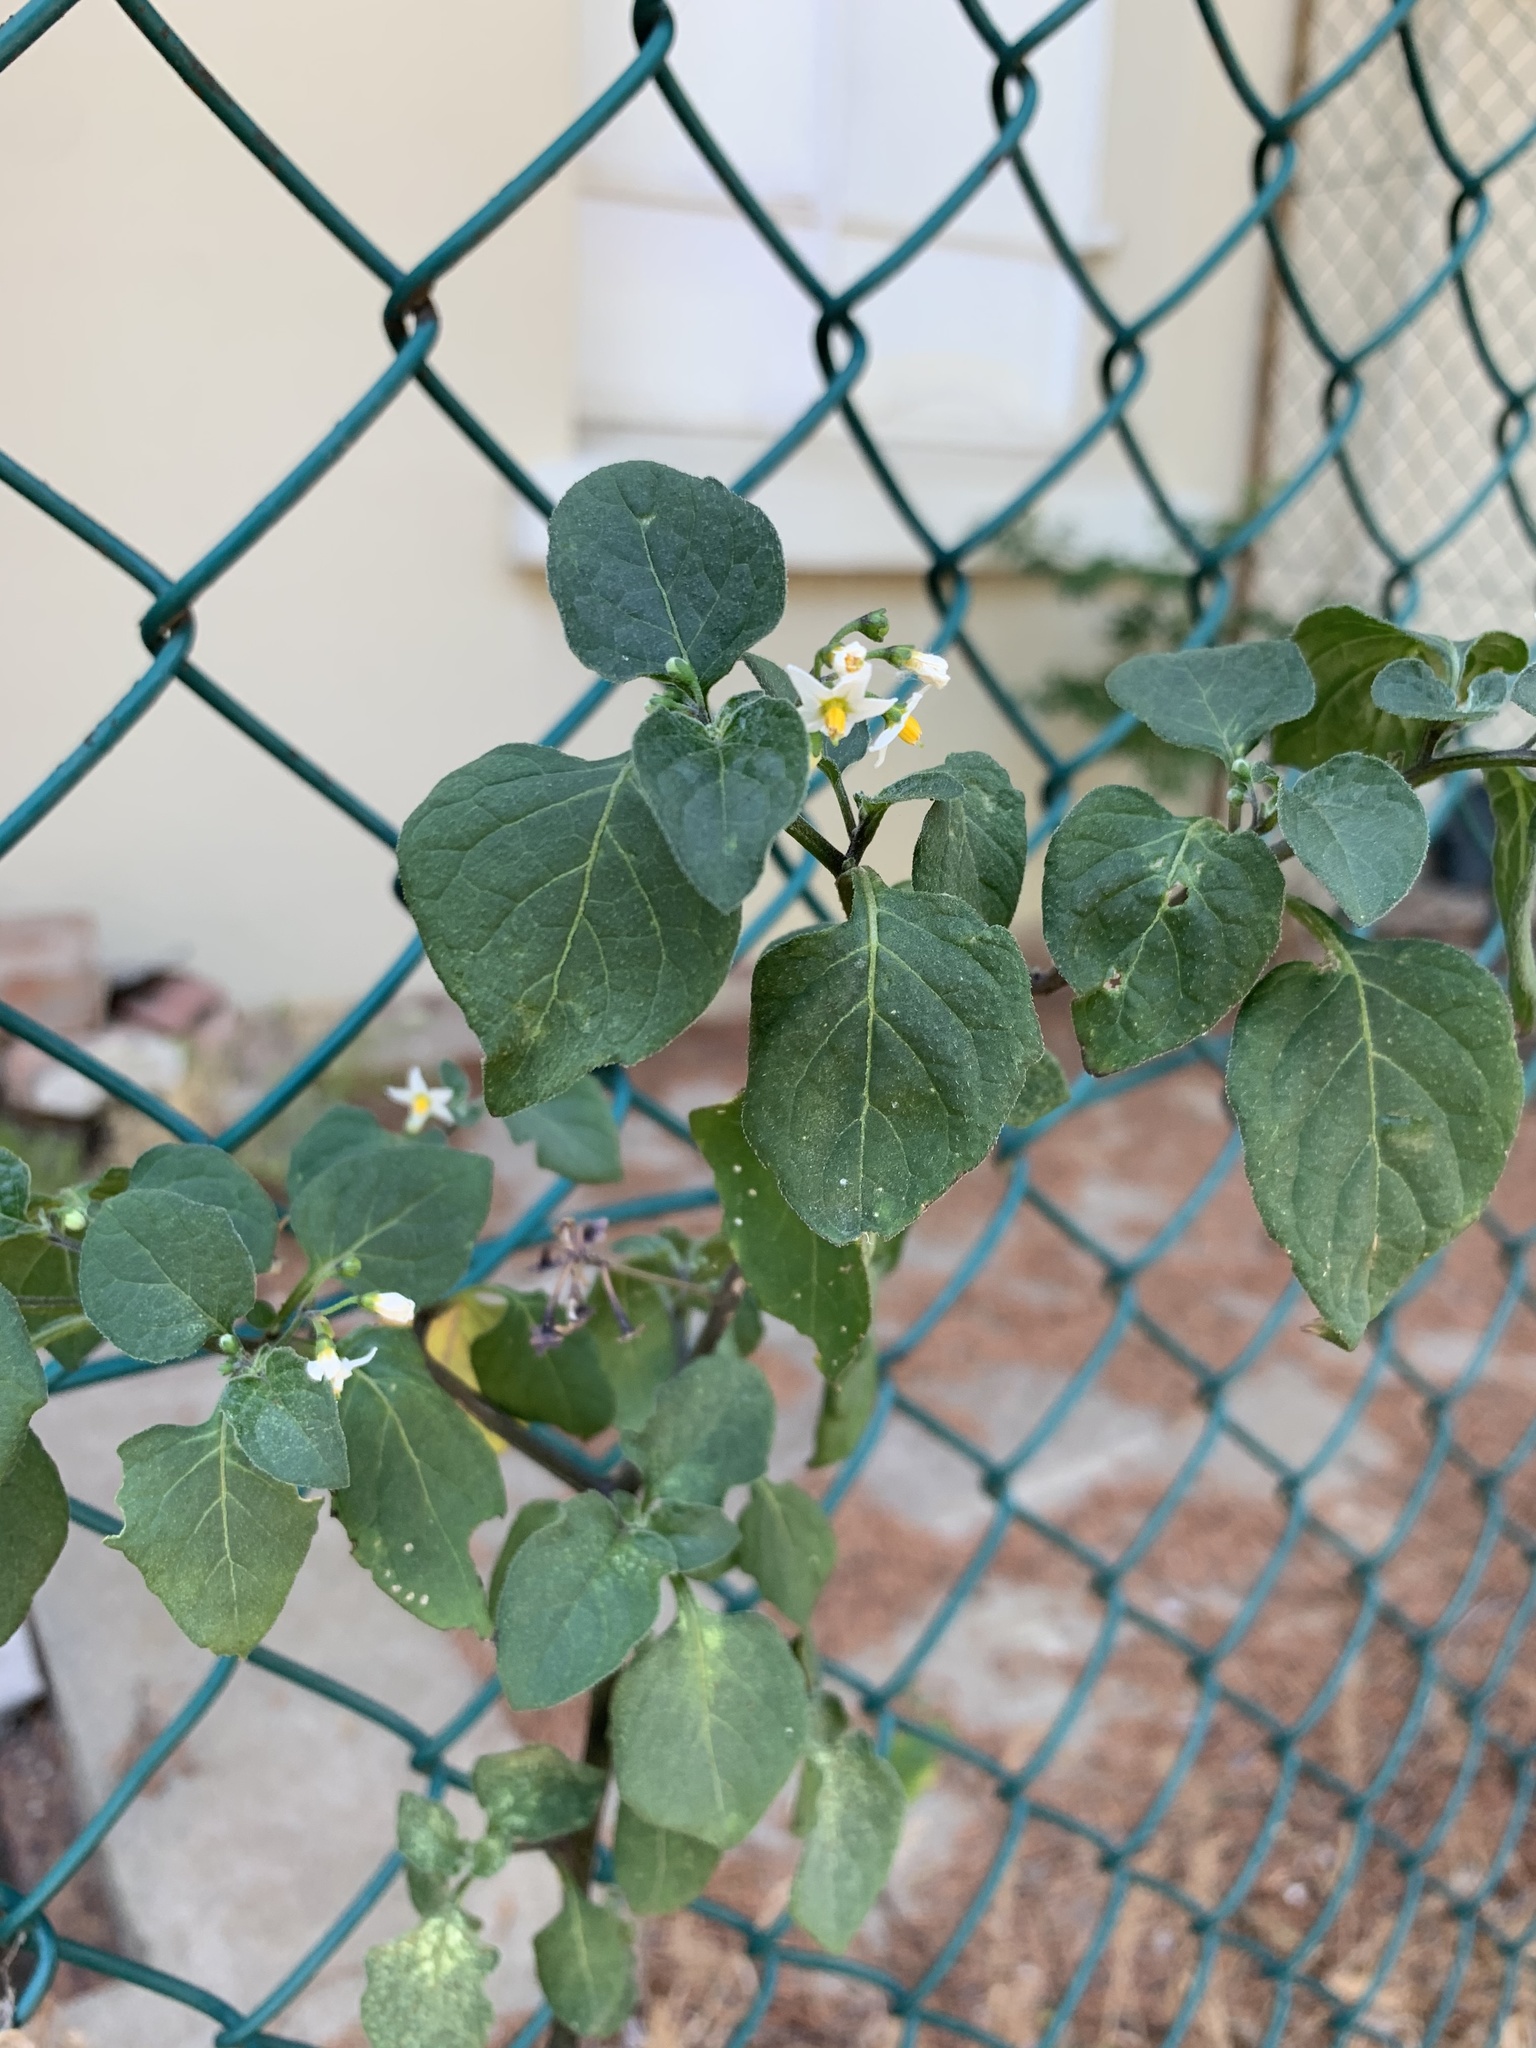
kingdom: Plantae
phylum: Tracheophyta
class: Magnoliopsida
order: Solanales
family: Solanaceae
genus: Solanum
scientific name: Solanum nigrum
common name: Black nightshade
